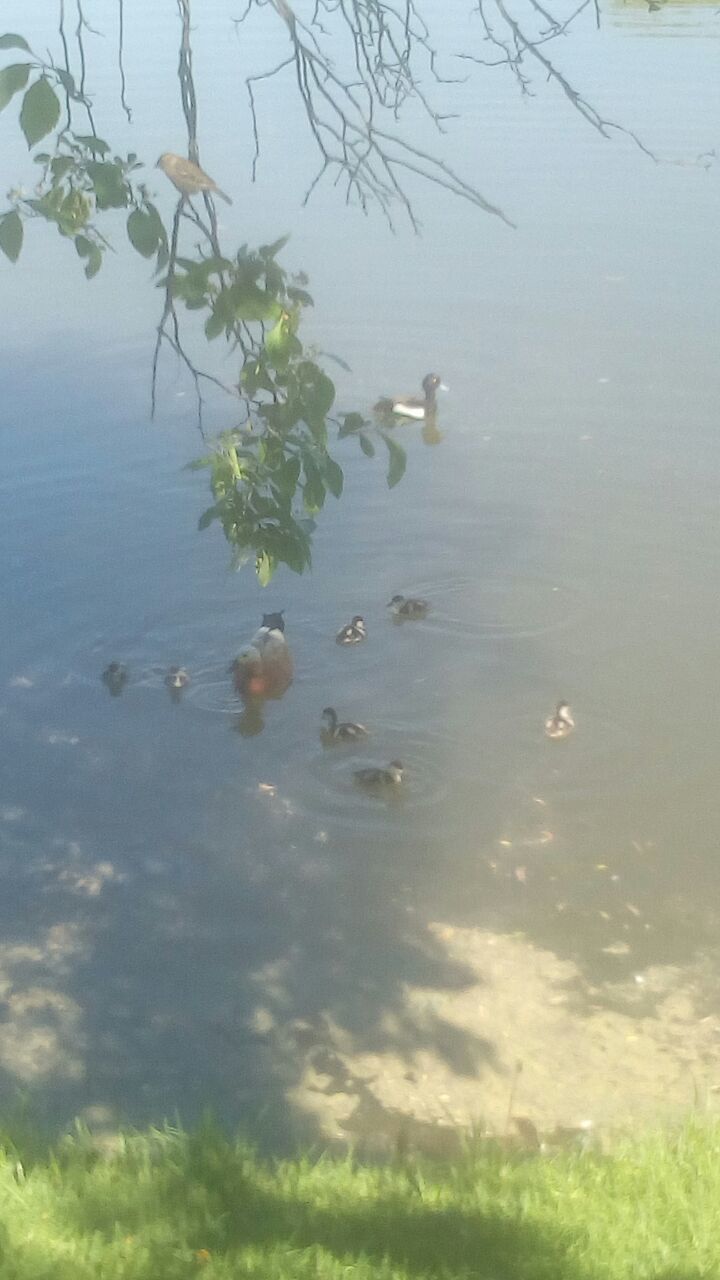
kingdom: Animalia
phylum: Chordata
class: Aves
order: Anseriformes
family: Anatidae
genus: Aythya
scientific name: Aythya fuligula
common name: Tufted duck
